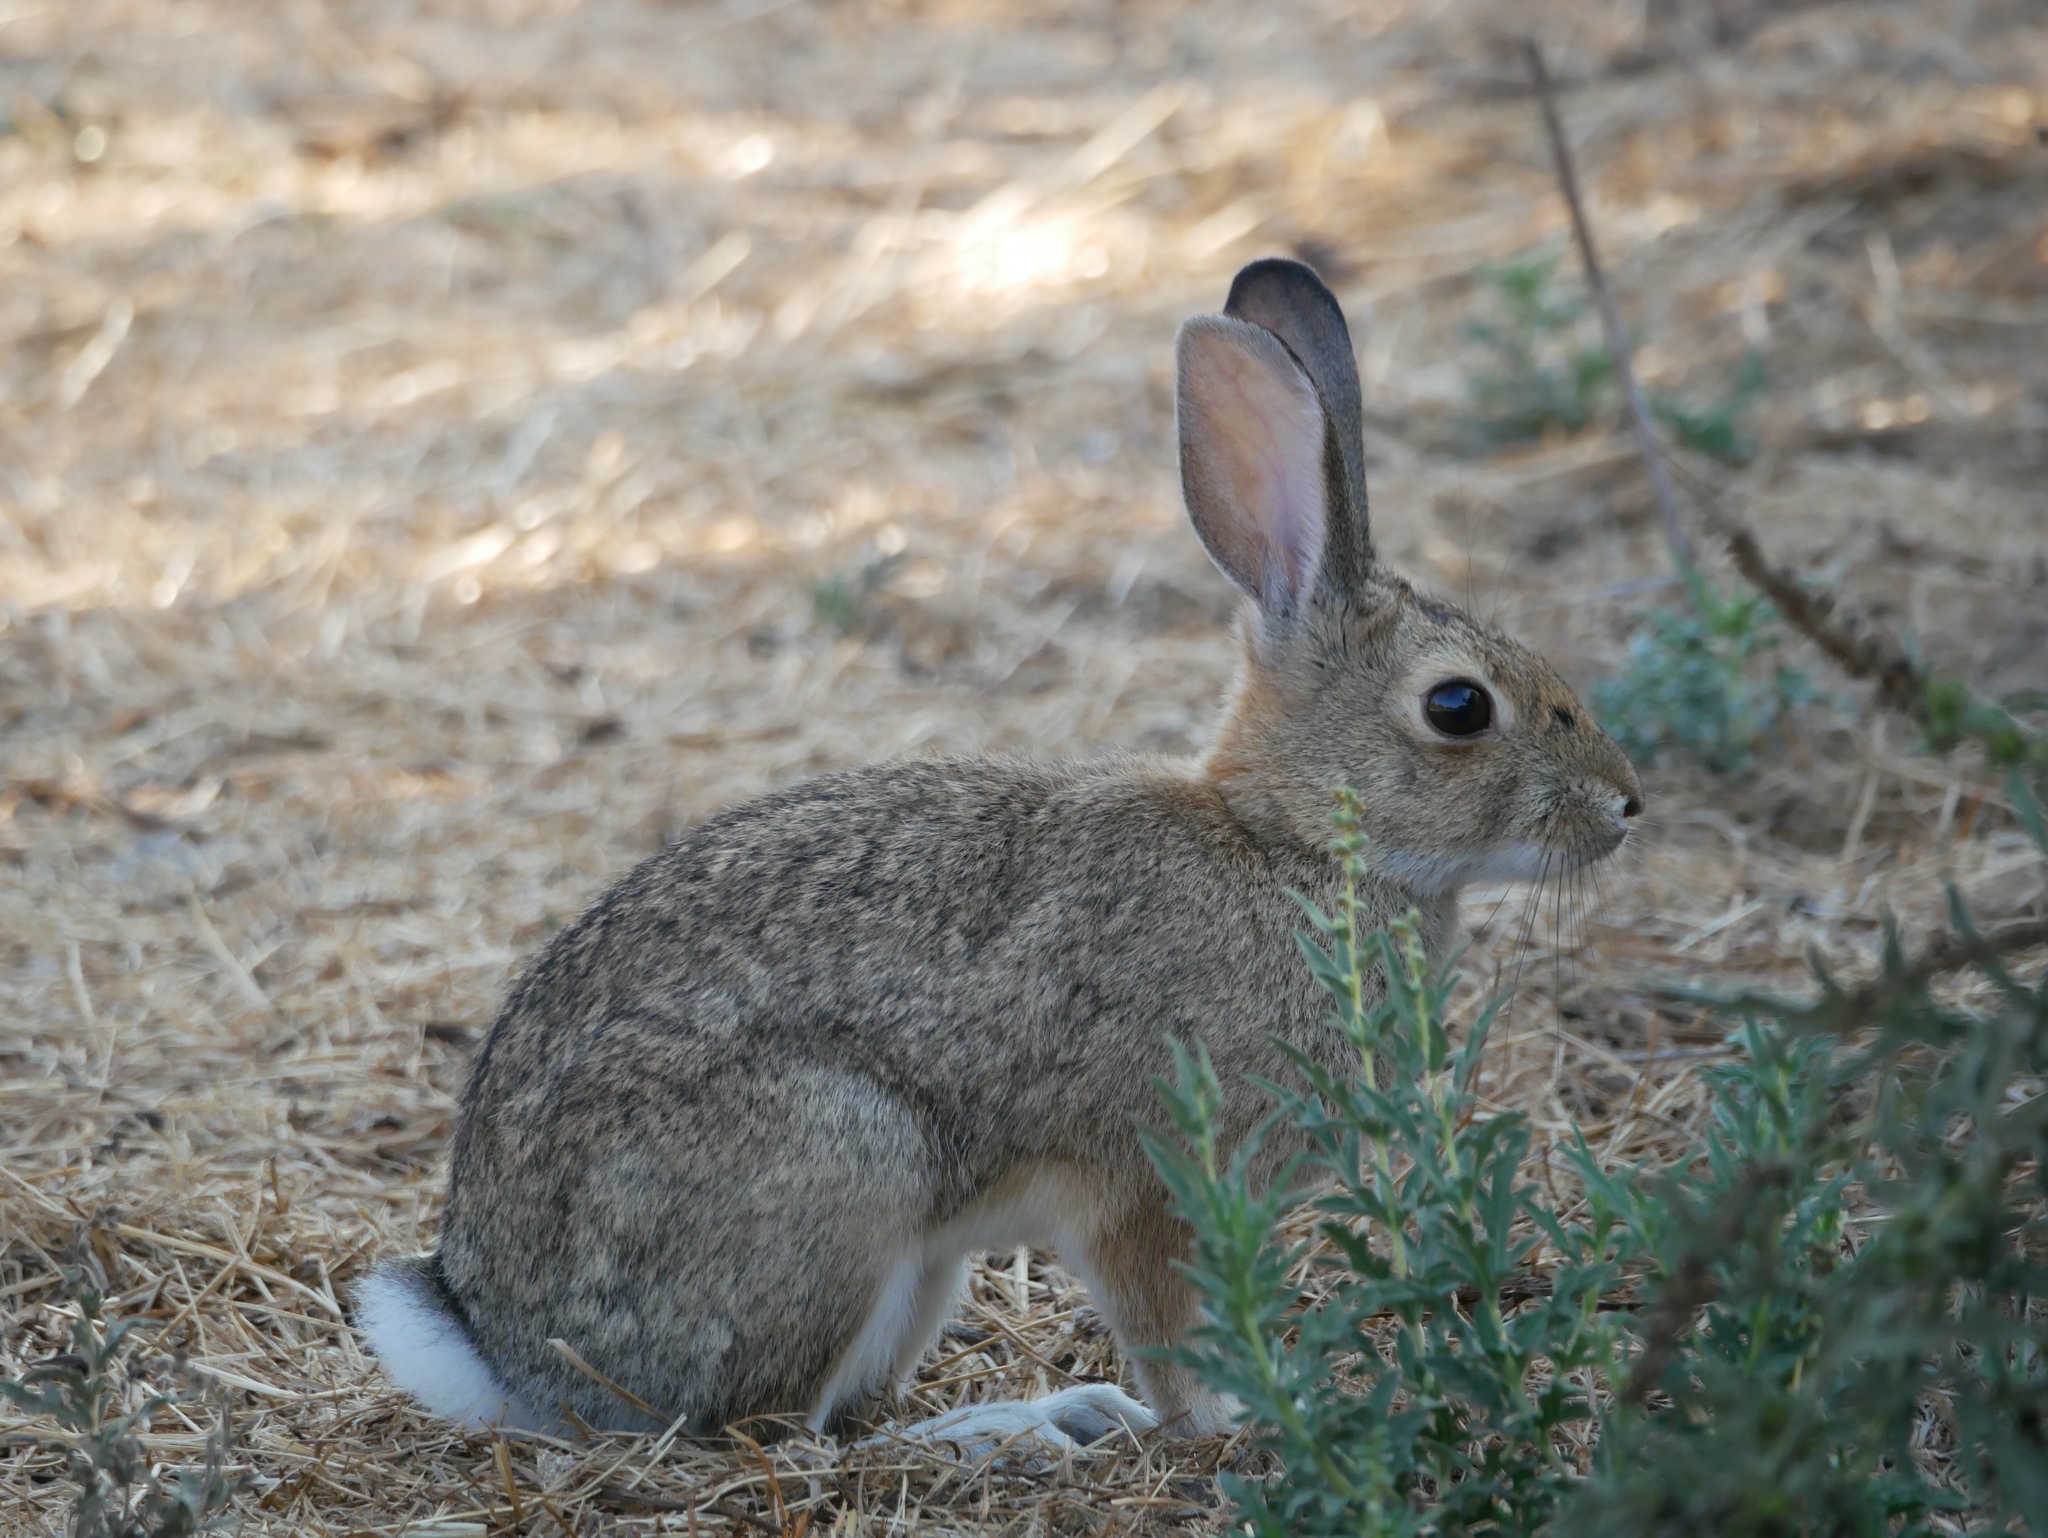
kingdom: Animalia
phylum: Chordata
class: Mammalia
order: Lagomorpha
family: Leporidae
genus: Sylvilagus
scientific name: Sylvilagus audubonii
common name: Desert cottontail
